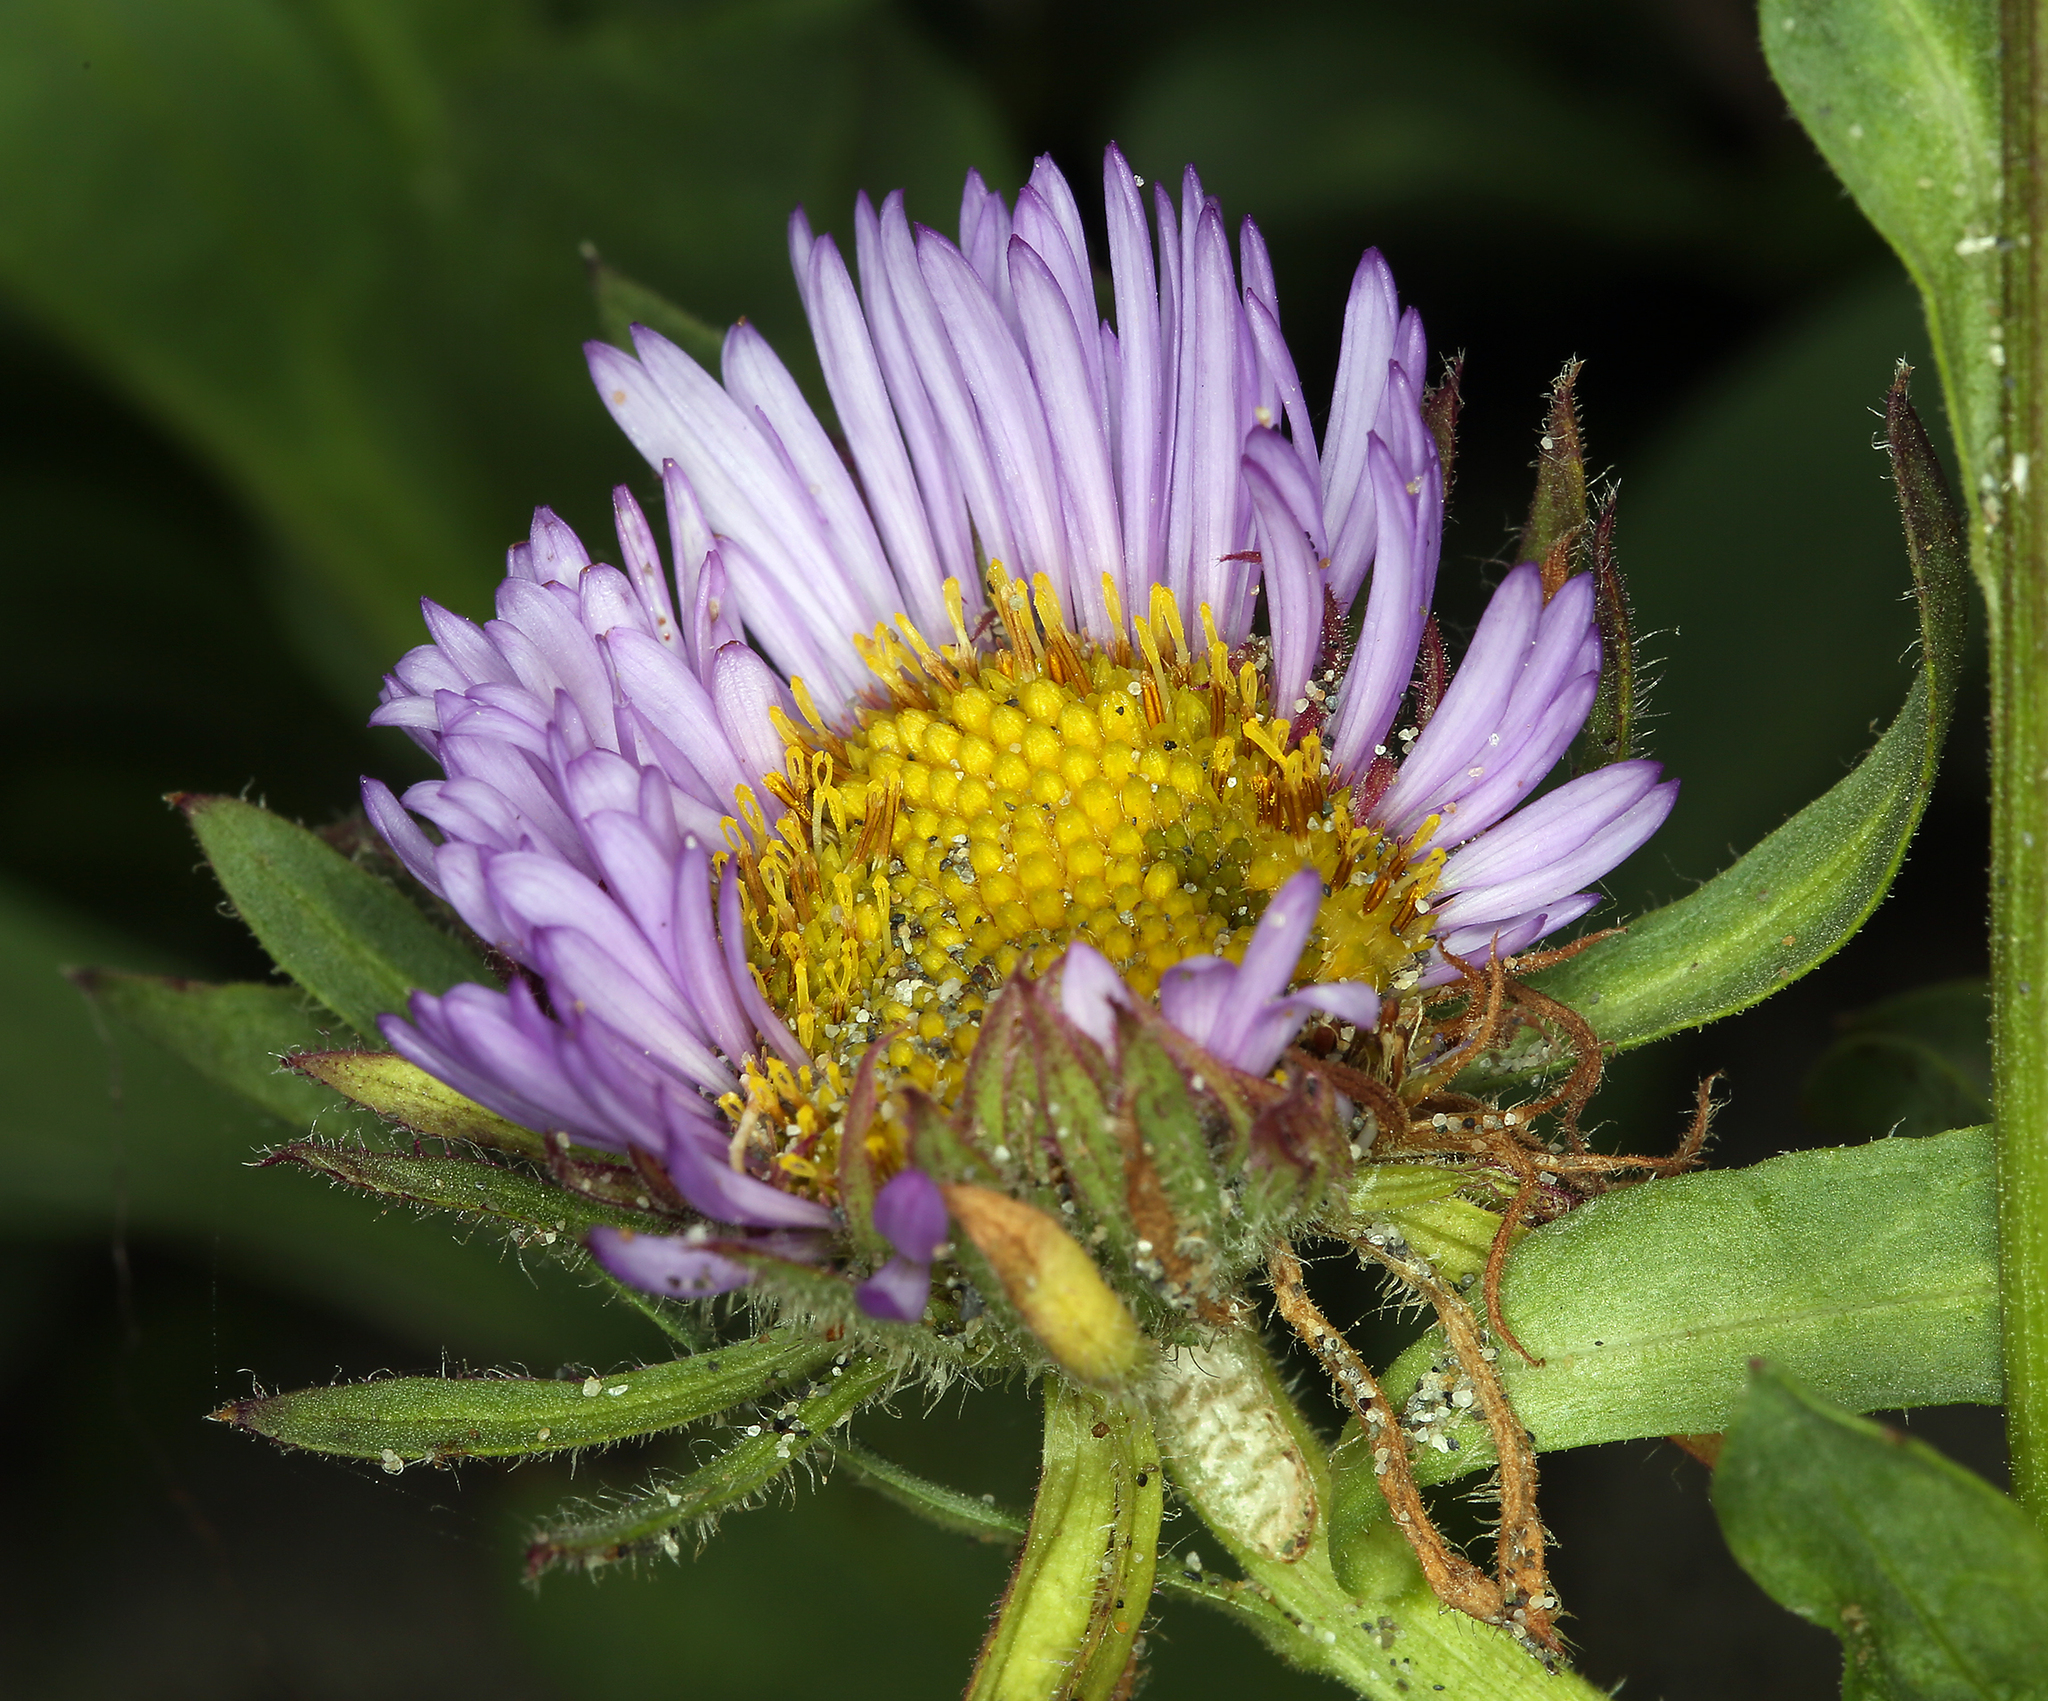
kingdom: Plantae
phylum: Tracheophyta
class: Magnoliopsida
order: Asterales
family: Asteraceae
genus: Erigeron
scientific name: Erigeron glaucus
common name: Seaside daisy
